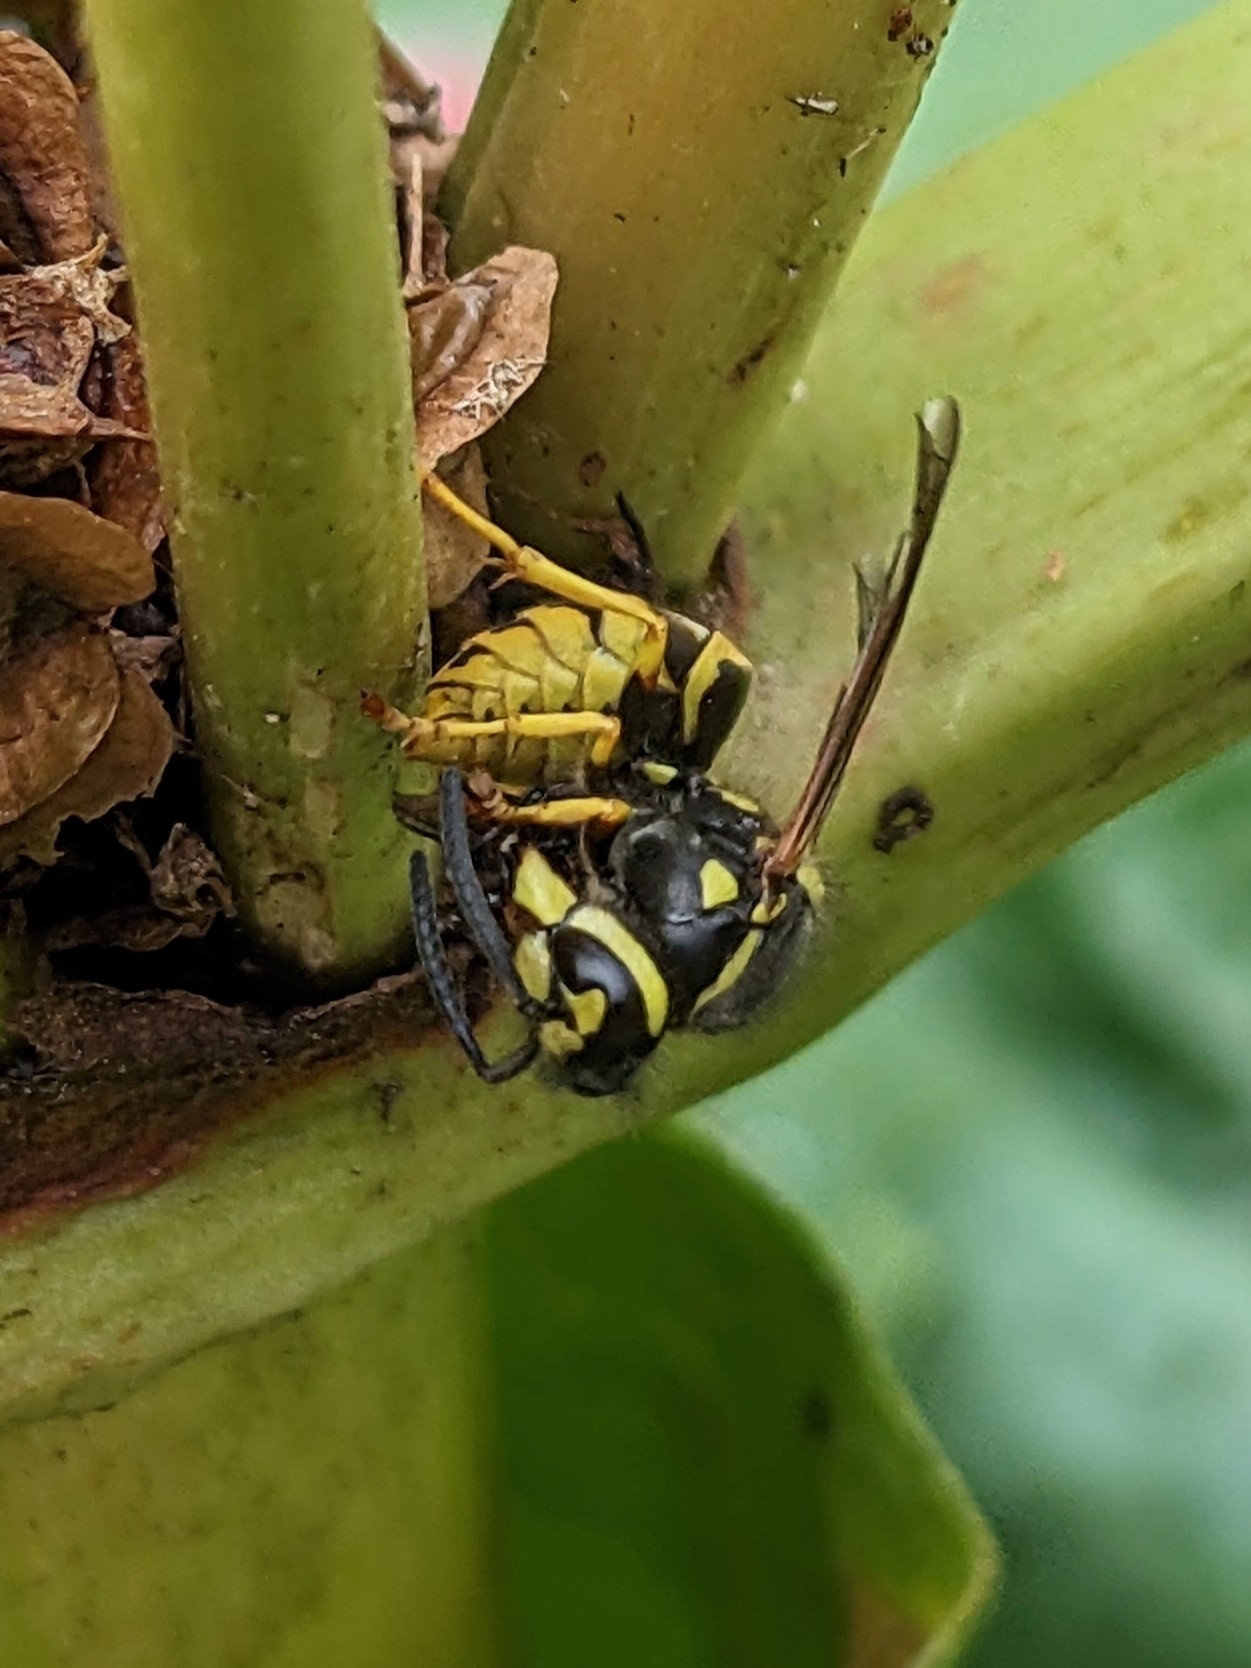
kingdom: Animalia
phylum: Arthropoda
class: Insecta
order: Hymenoptera
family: Vespidae
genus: Vespula
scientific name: Vespula germanica
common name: German wasp
